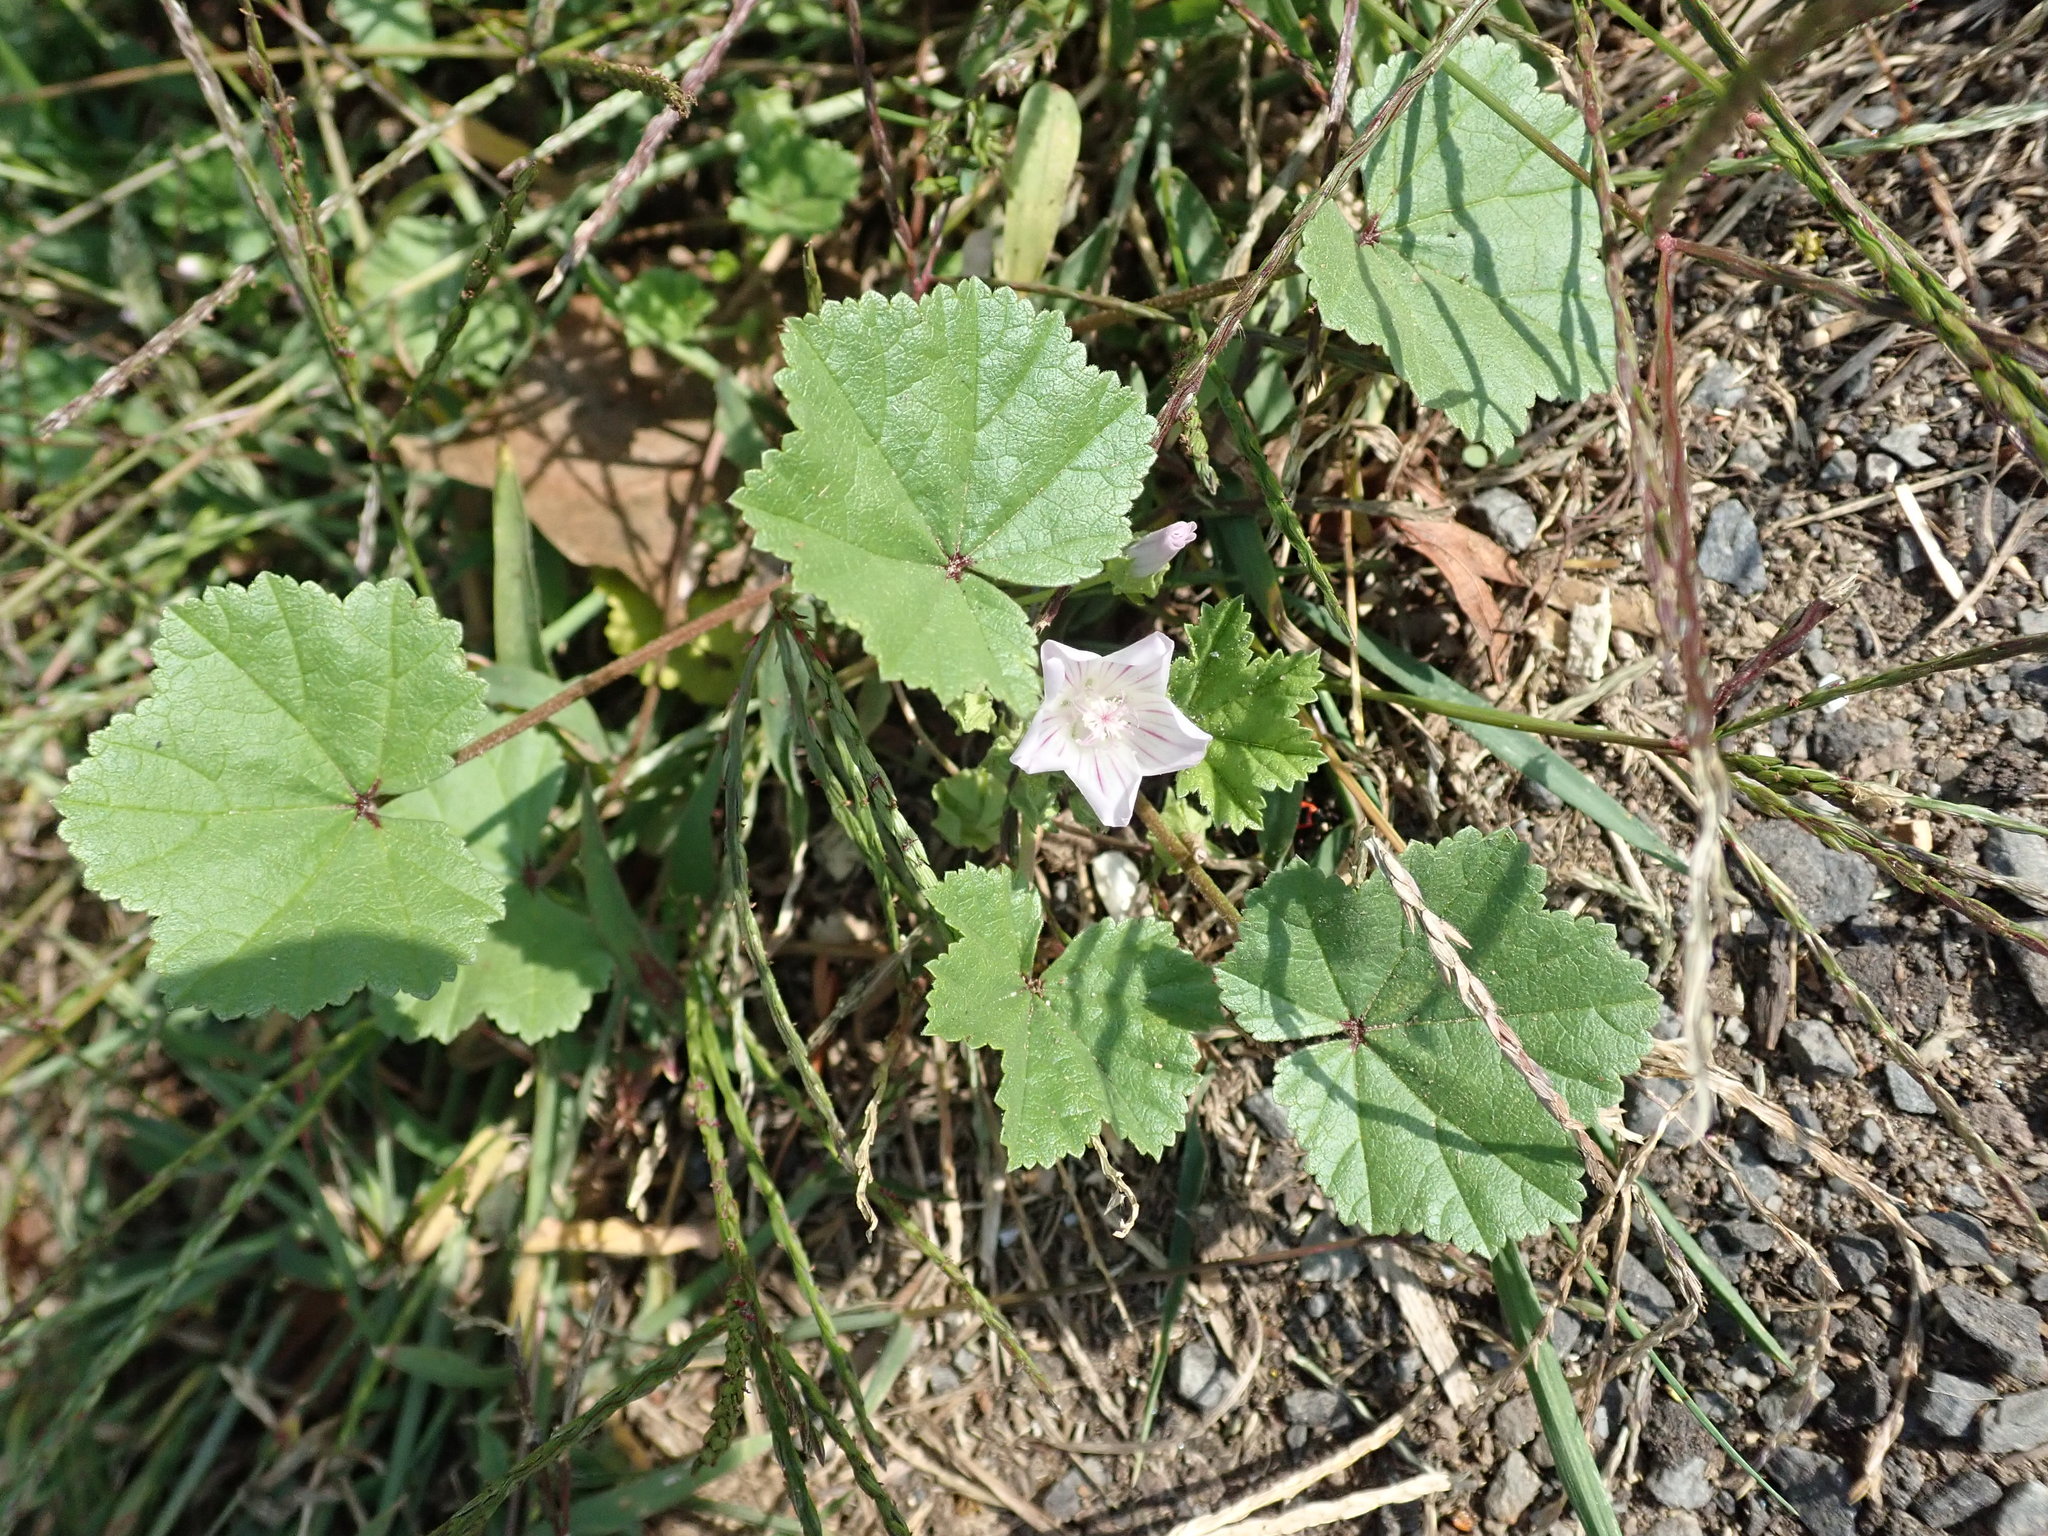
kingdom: Plantae
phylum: Tracheophyta
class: Magnoliopsida
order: Malvales
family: Malvaceae
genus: Malva
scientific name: Malva neglecta
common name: Common mallow
